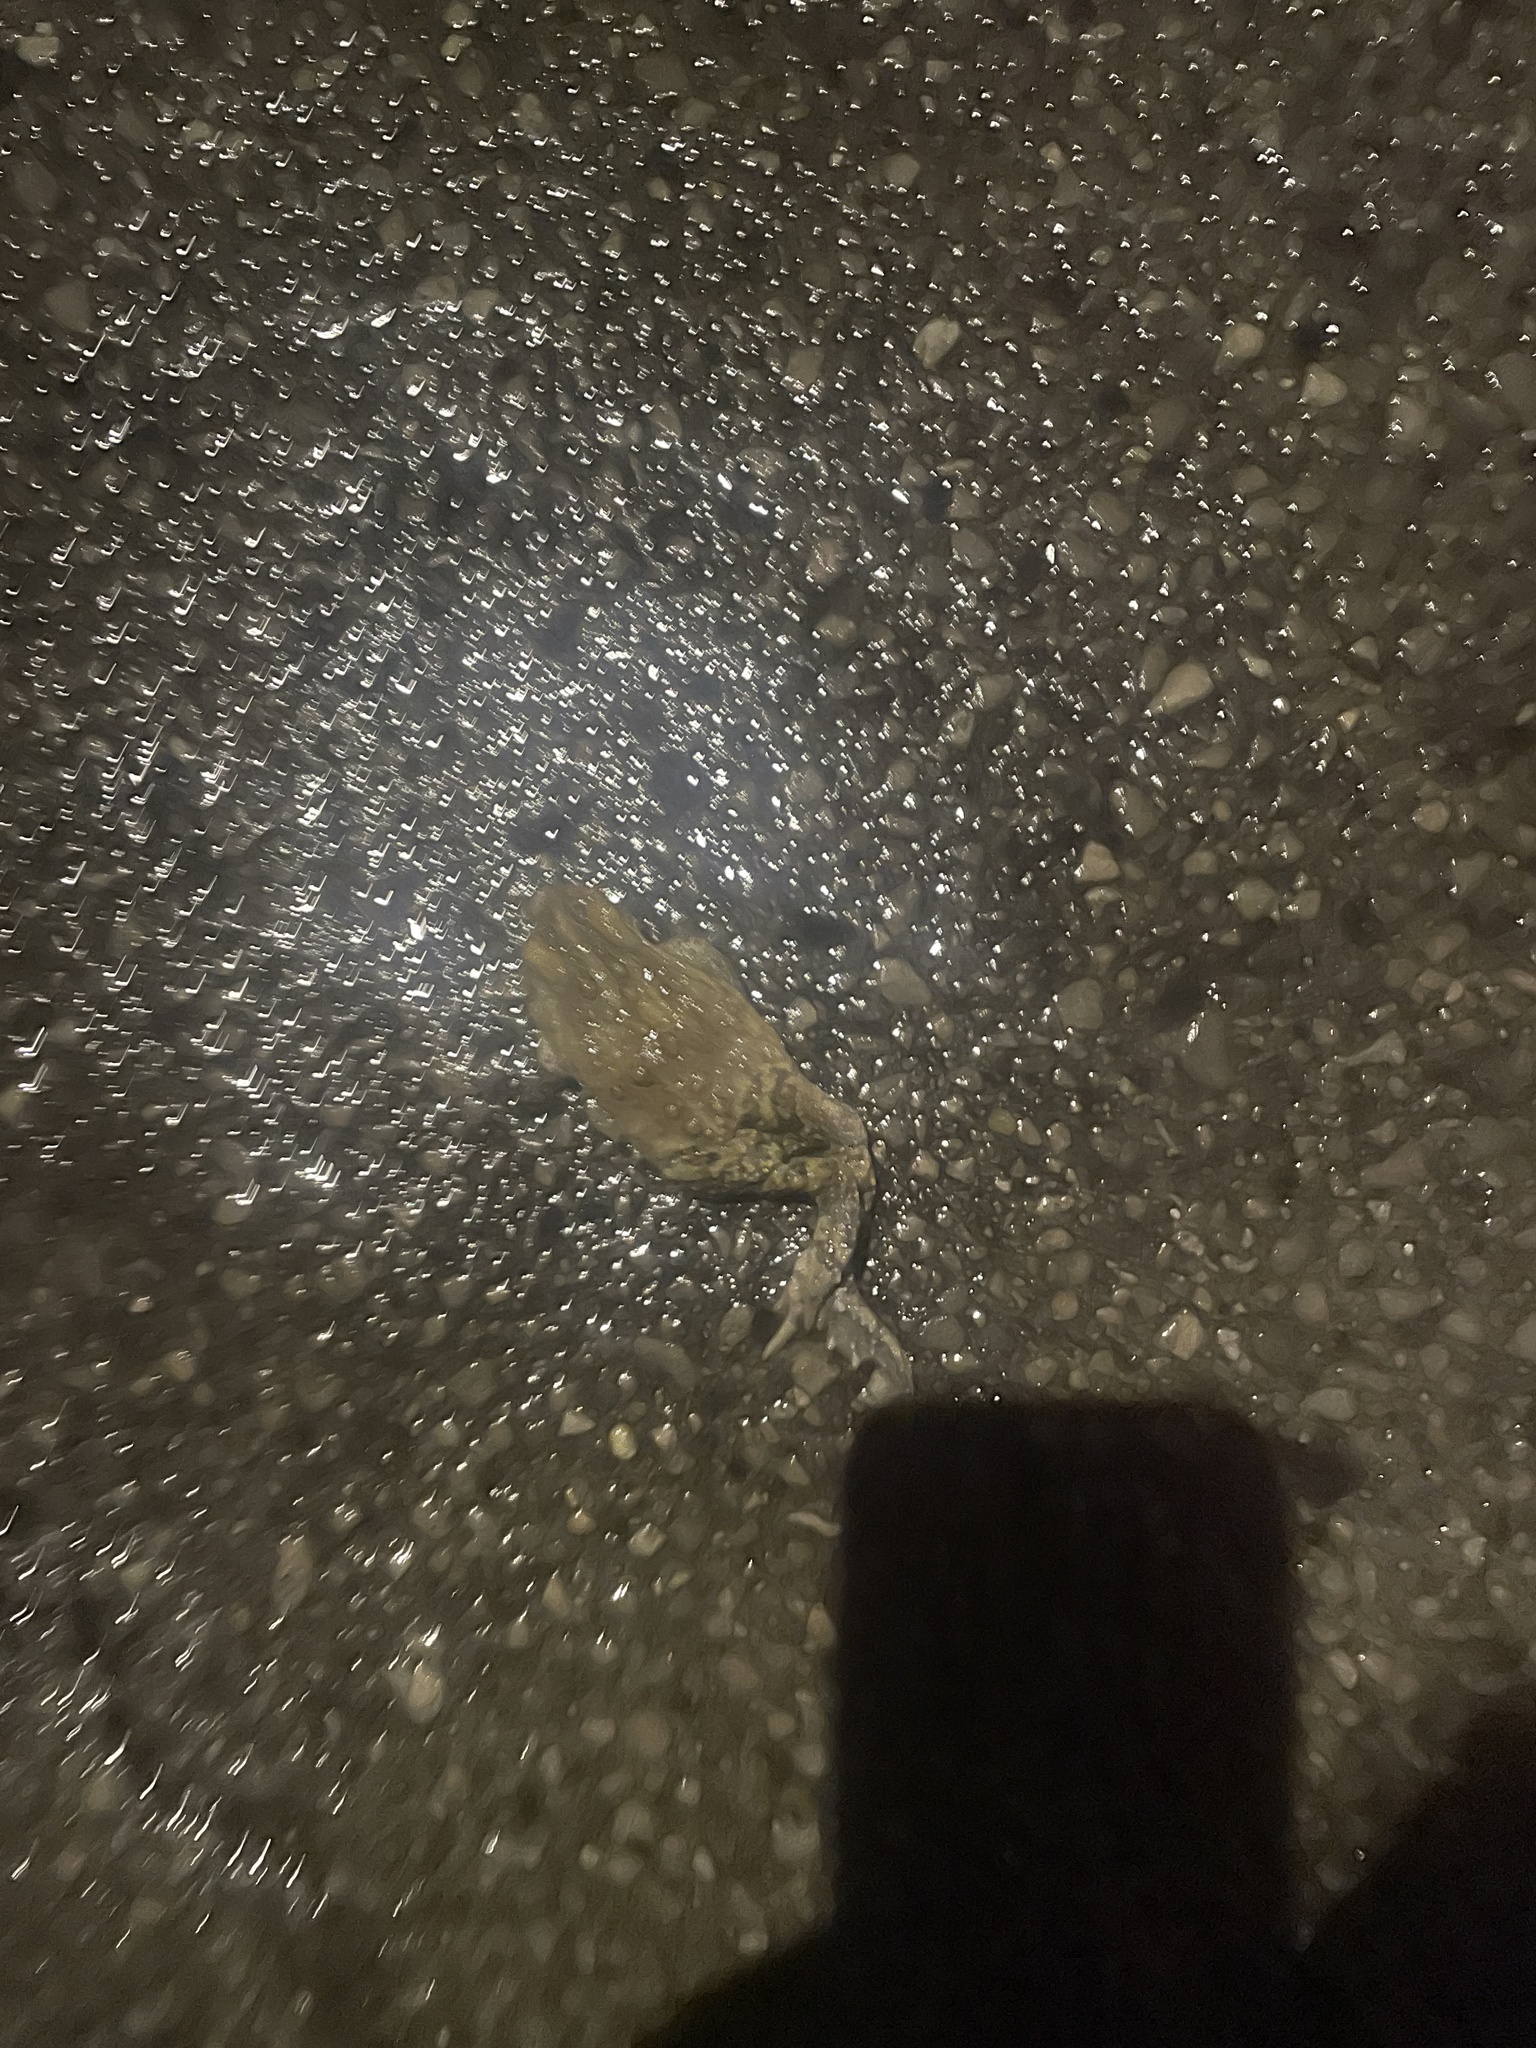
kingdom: Animalia
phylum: Chordata
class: Amphibia
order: Anura
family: Bufonidae
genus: Anaxyrus
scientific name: Anaxyrus americanus
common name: American toad
